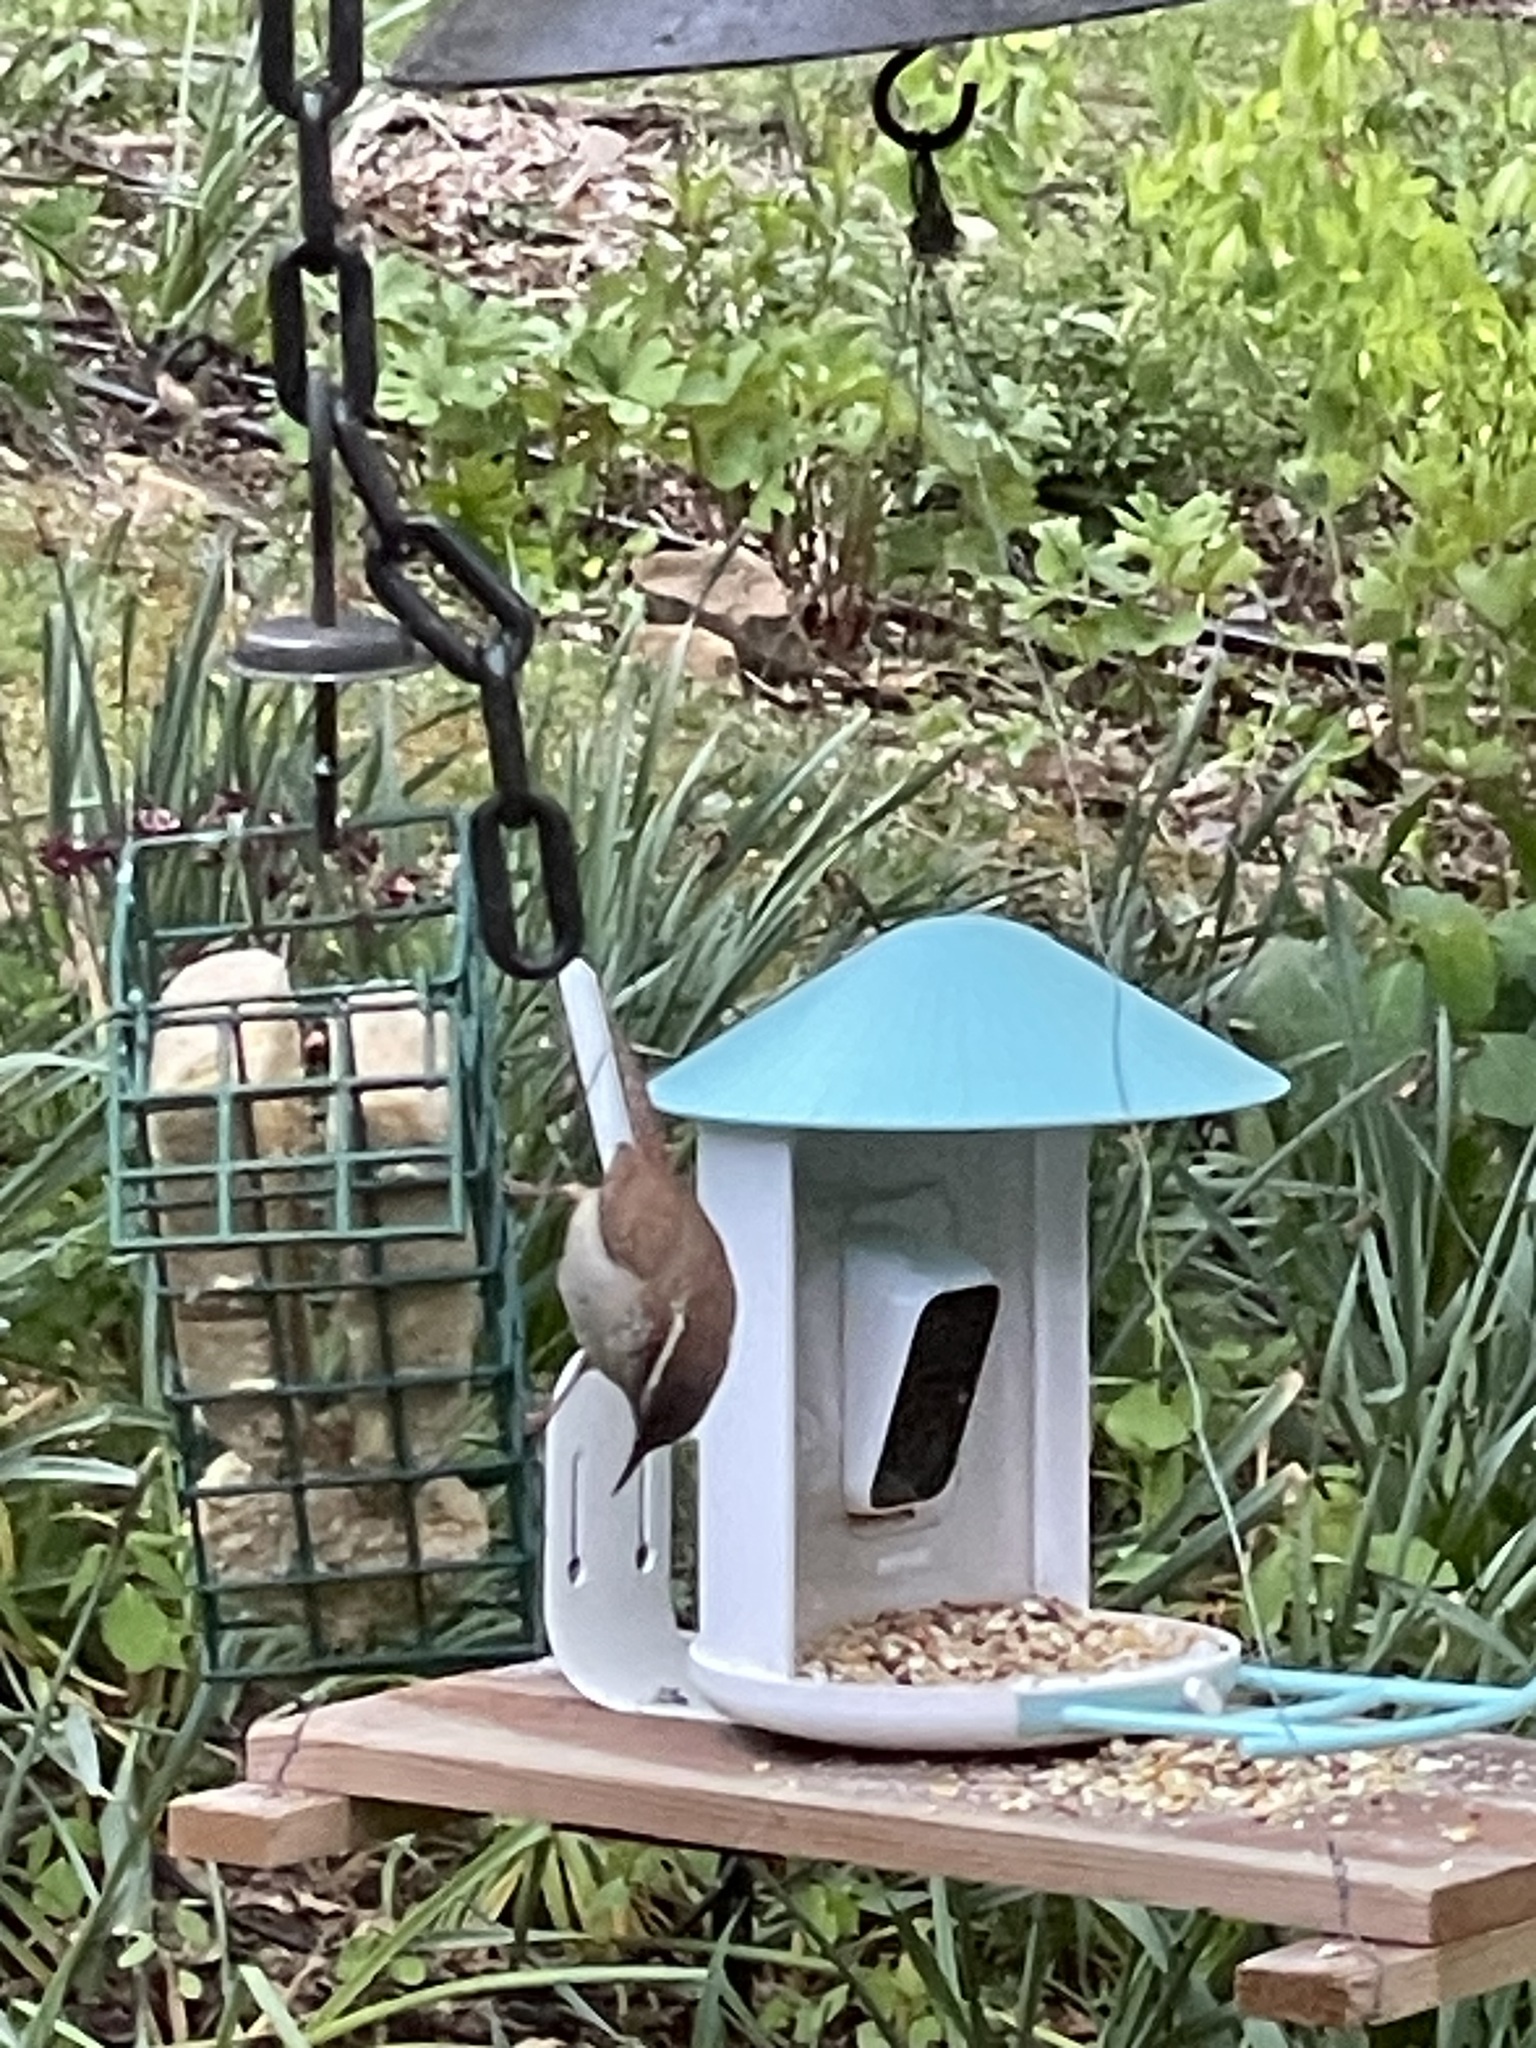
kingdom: Animalia
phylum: Chordata
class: Aves
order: Passeriformes
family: Troglodytidae
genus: Thryothorus
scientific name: Thryothorus ludovicianus
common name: Carolina wren
